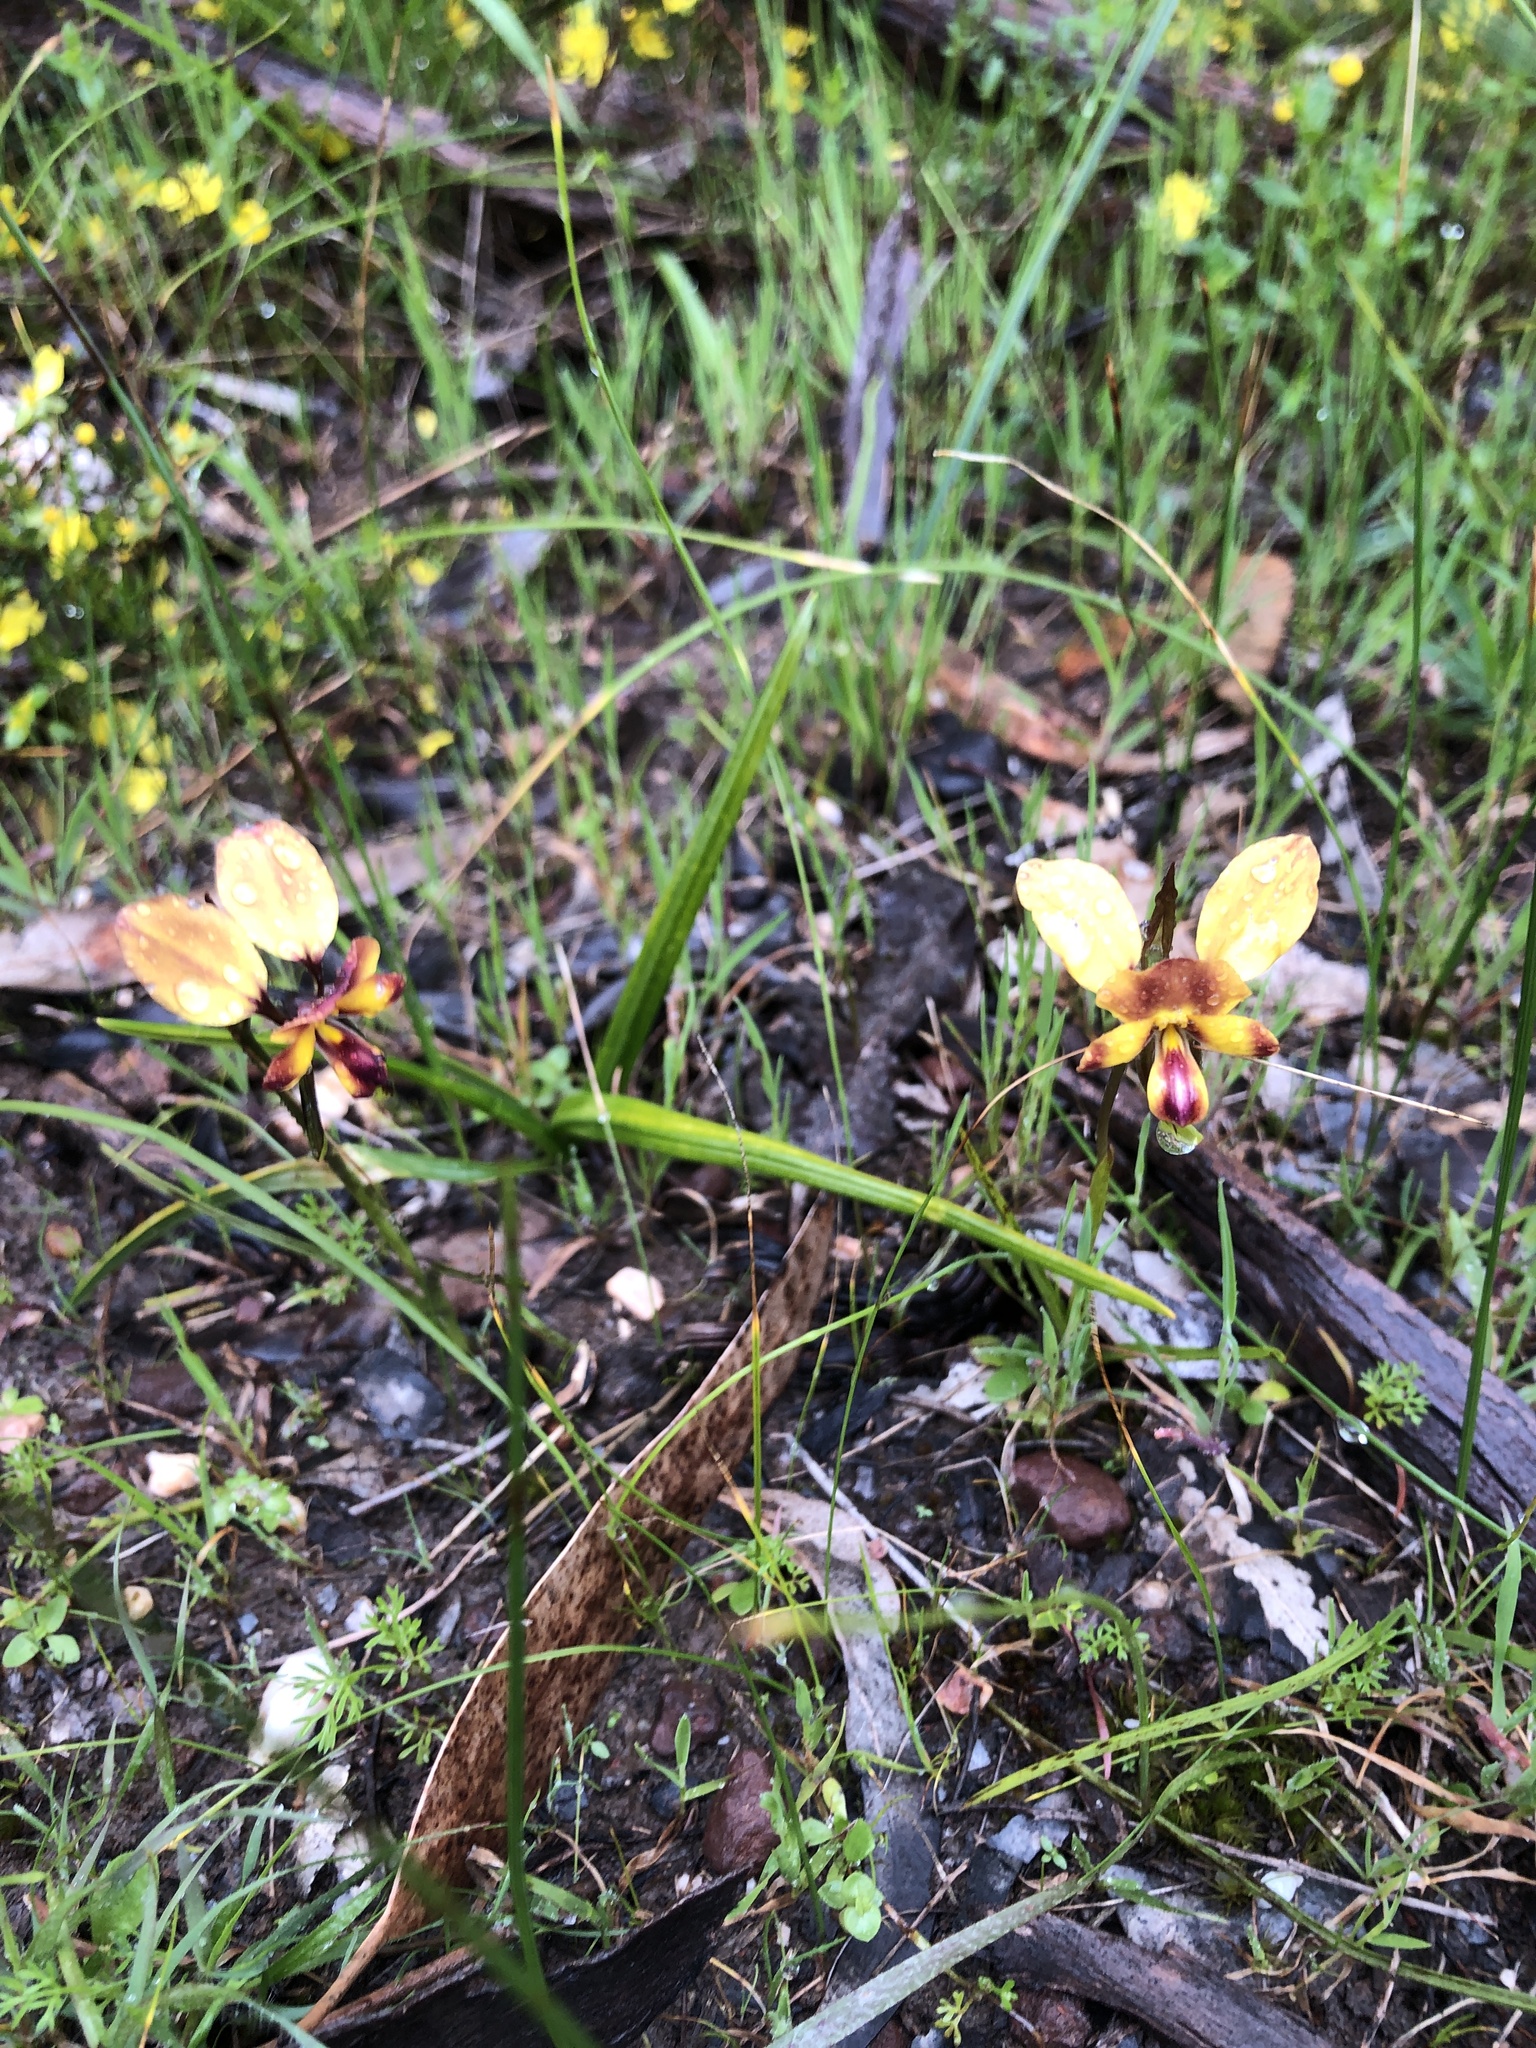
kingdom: Plantae
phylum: Tracheophyta
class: Liliopsida
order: Asparagales
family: Orchidaceae
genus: Diuris
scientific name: Diuris orientis
